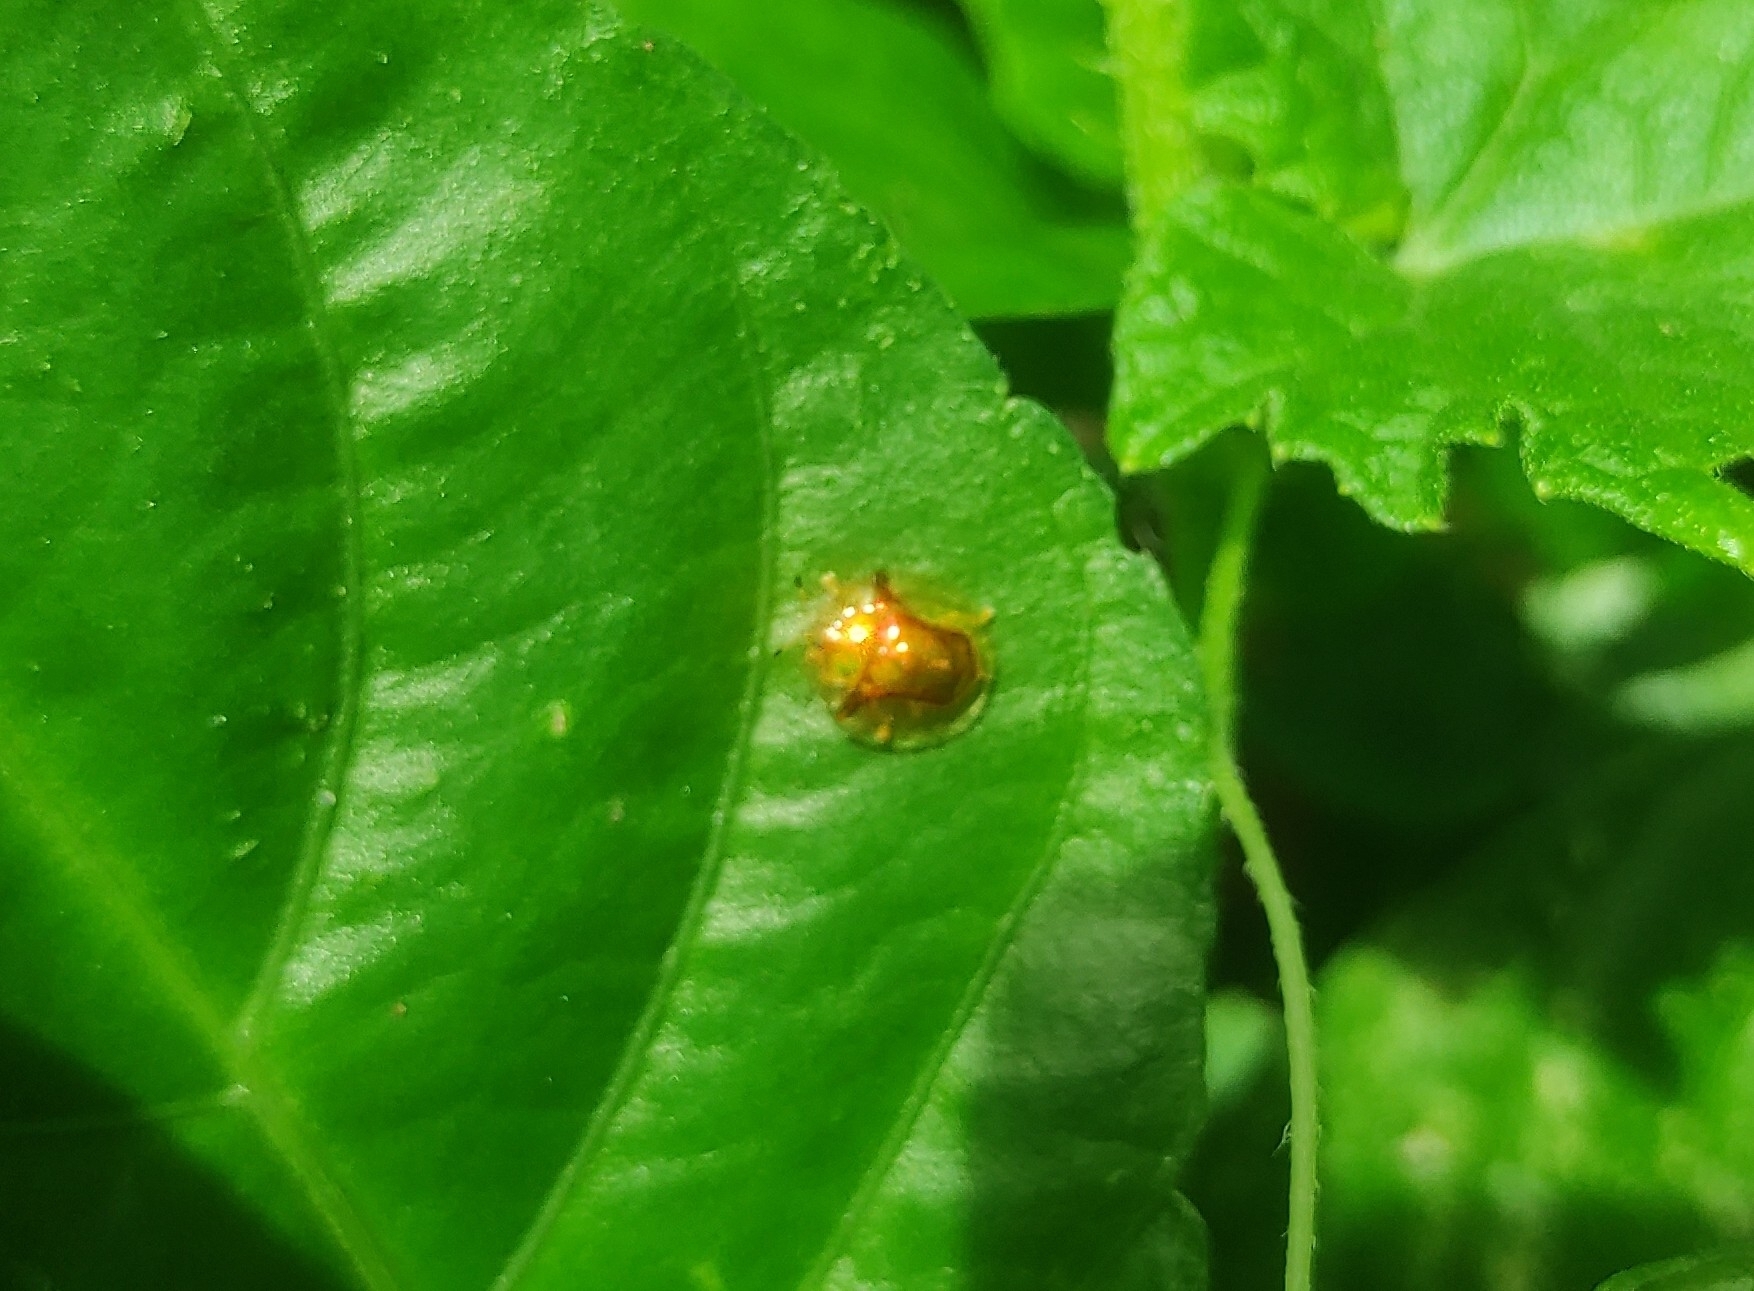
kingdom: Animalia
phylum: Arthropoda
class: Insecta
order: Coleoptera
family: Chrysomelidae
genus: Aspidimorpha
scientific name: Aspidimorpha furcata
